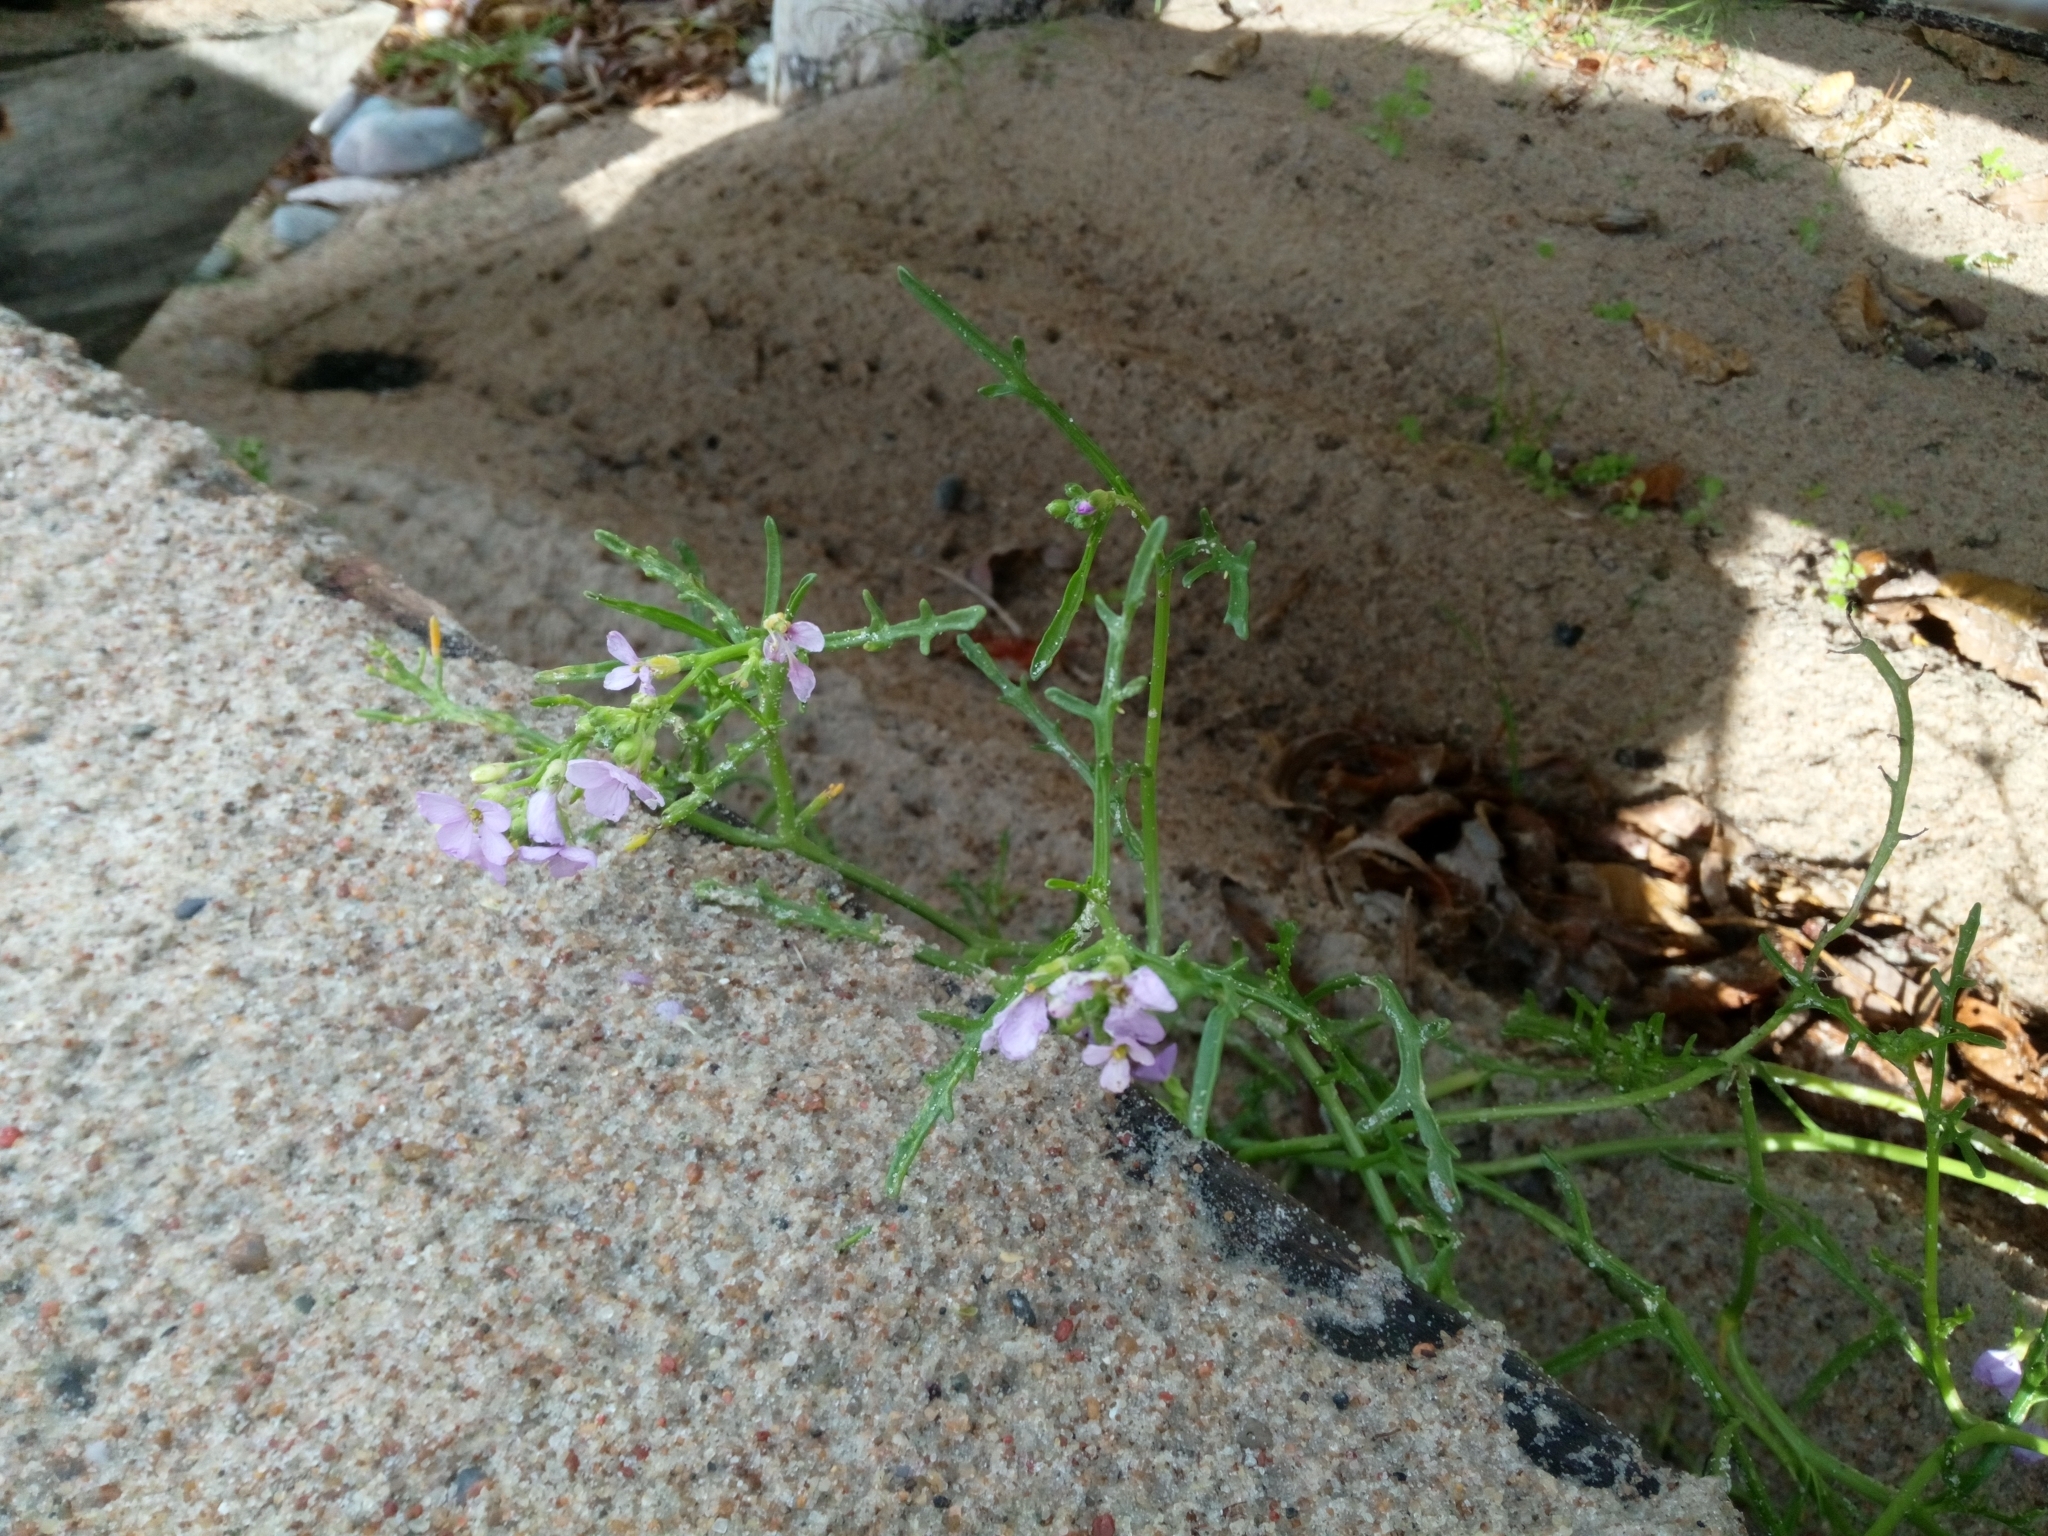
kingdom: Plantae
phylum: Tracheophyta
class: Magnoliopsida
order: Brassicales
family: Brassicaceae
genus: Cakile
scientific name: Cakile maritima
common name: Sea rocket
